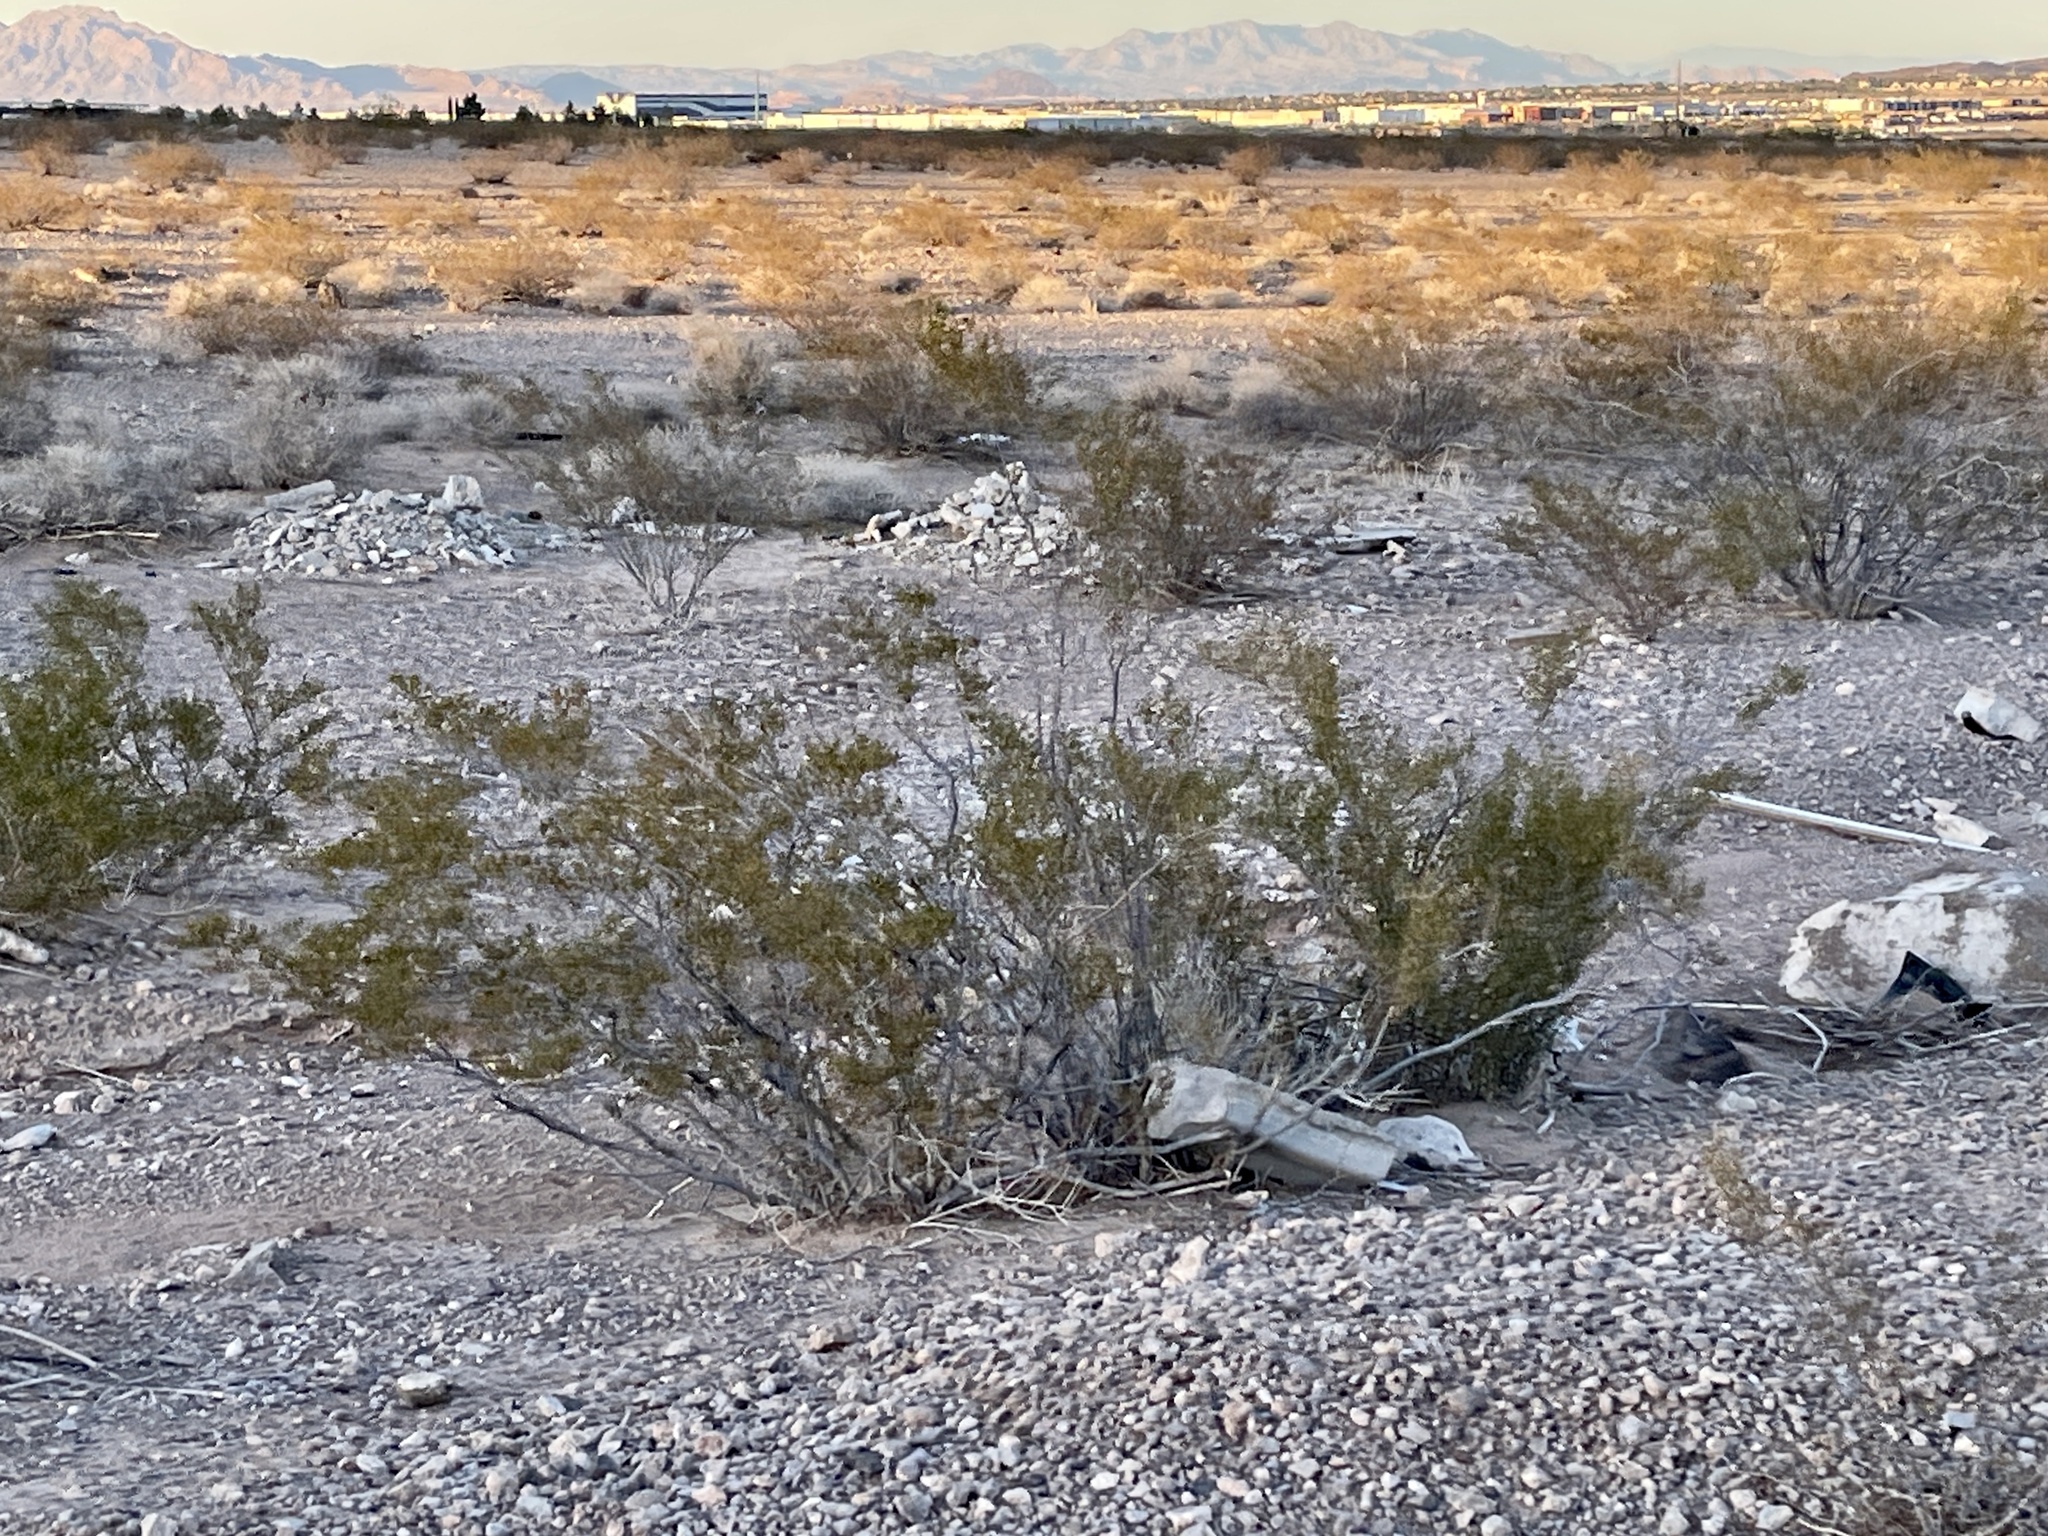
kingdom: Plantae
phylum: Tracheophyta
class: Magnoliopsida
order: Zygophyllales
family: Zygophyllaceae
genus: Larrea
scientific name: Larrea tridentata
